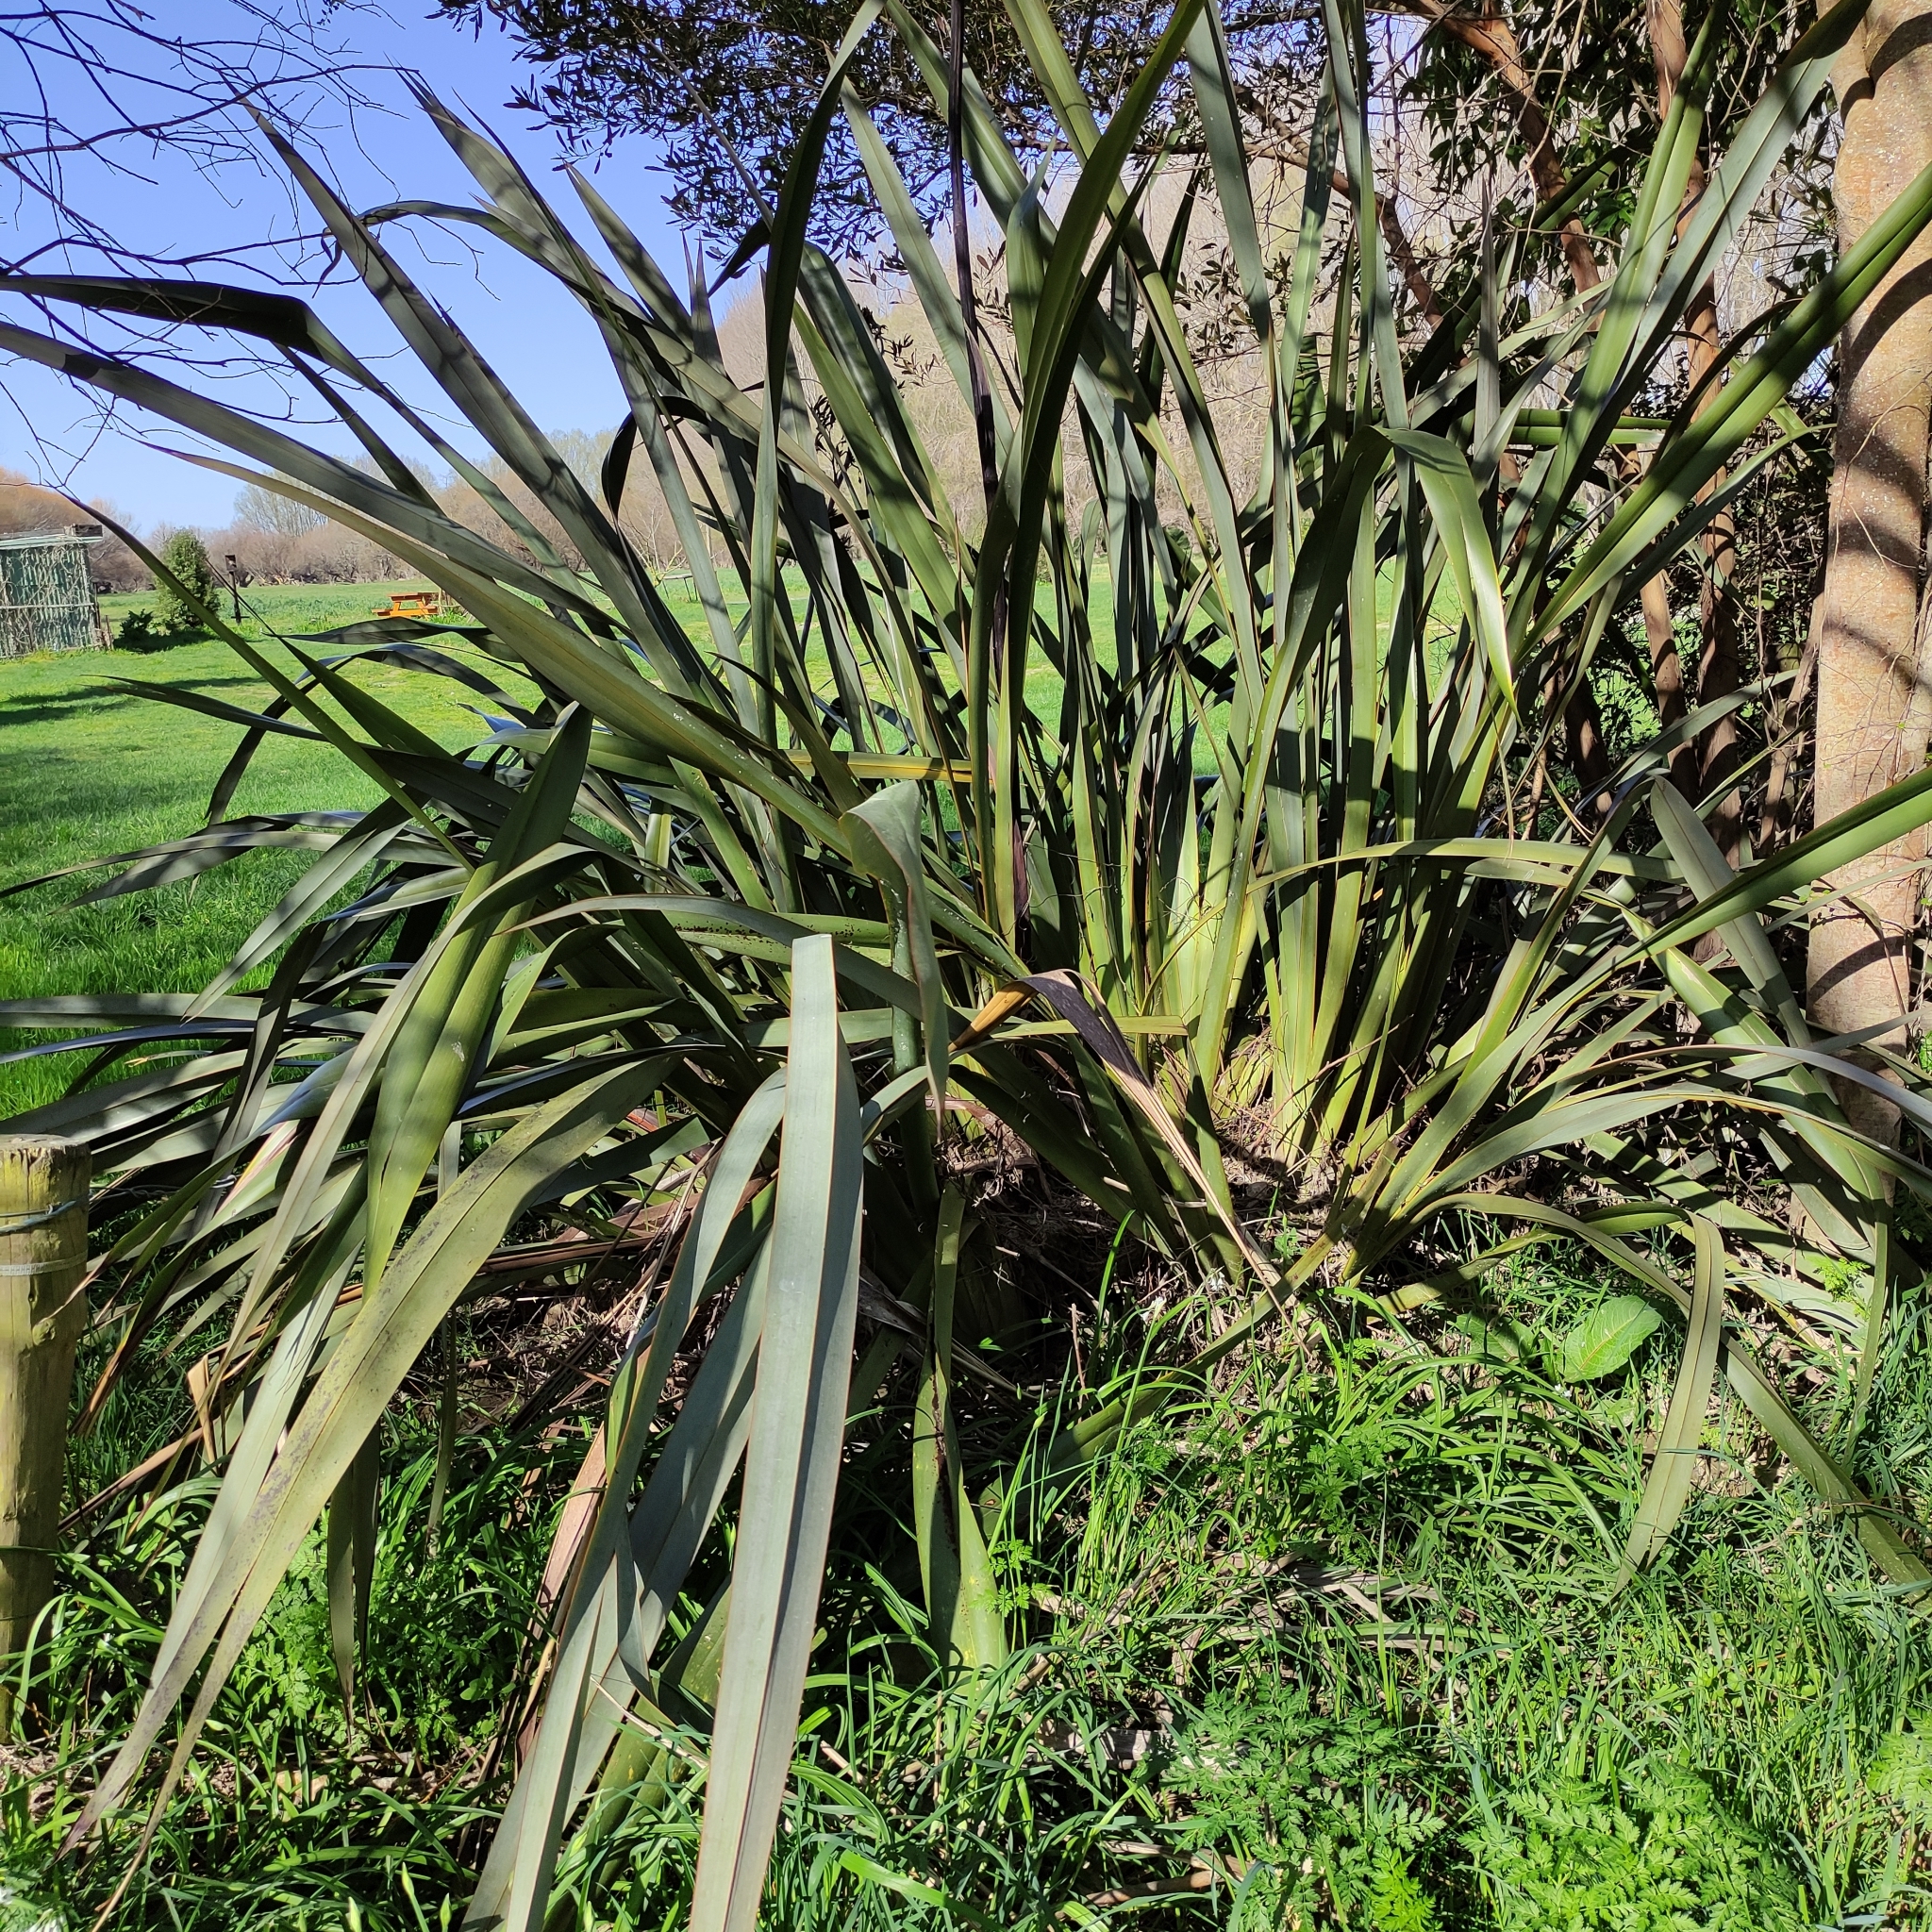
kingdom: Plantae
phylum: Tracheophyta
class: Liliopsida
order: Asparagales
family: Asphodelaceae
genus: Phormium
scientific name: Phormium tenax
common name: New zealand flax
